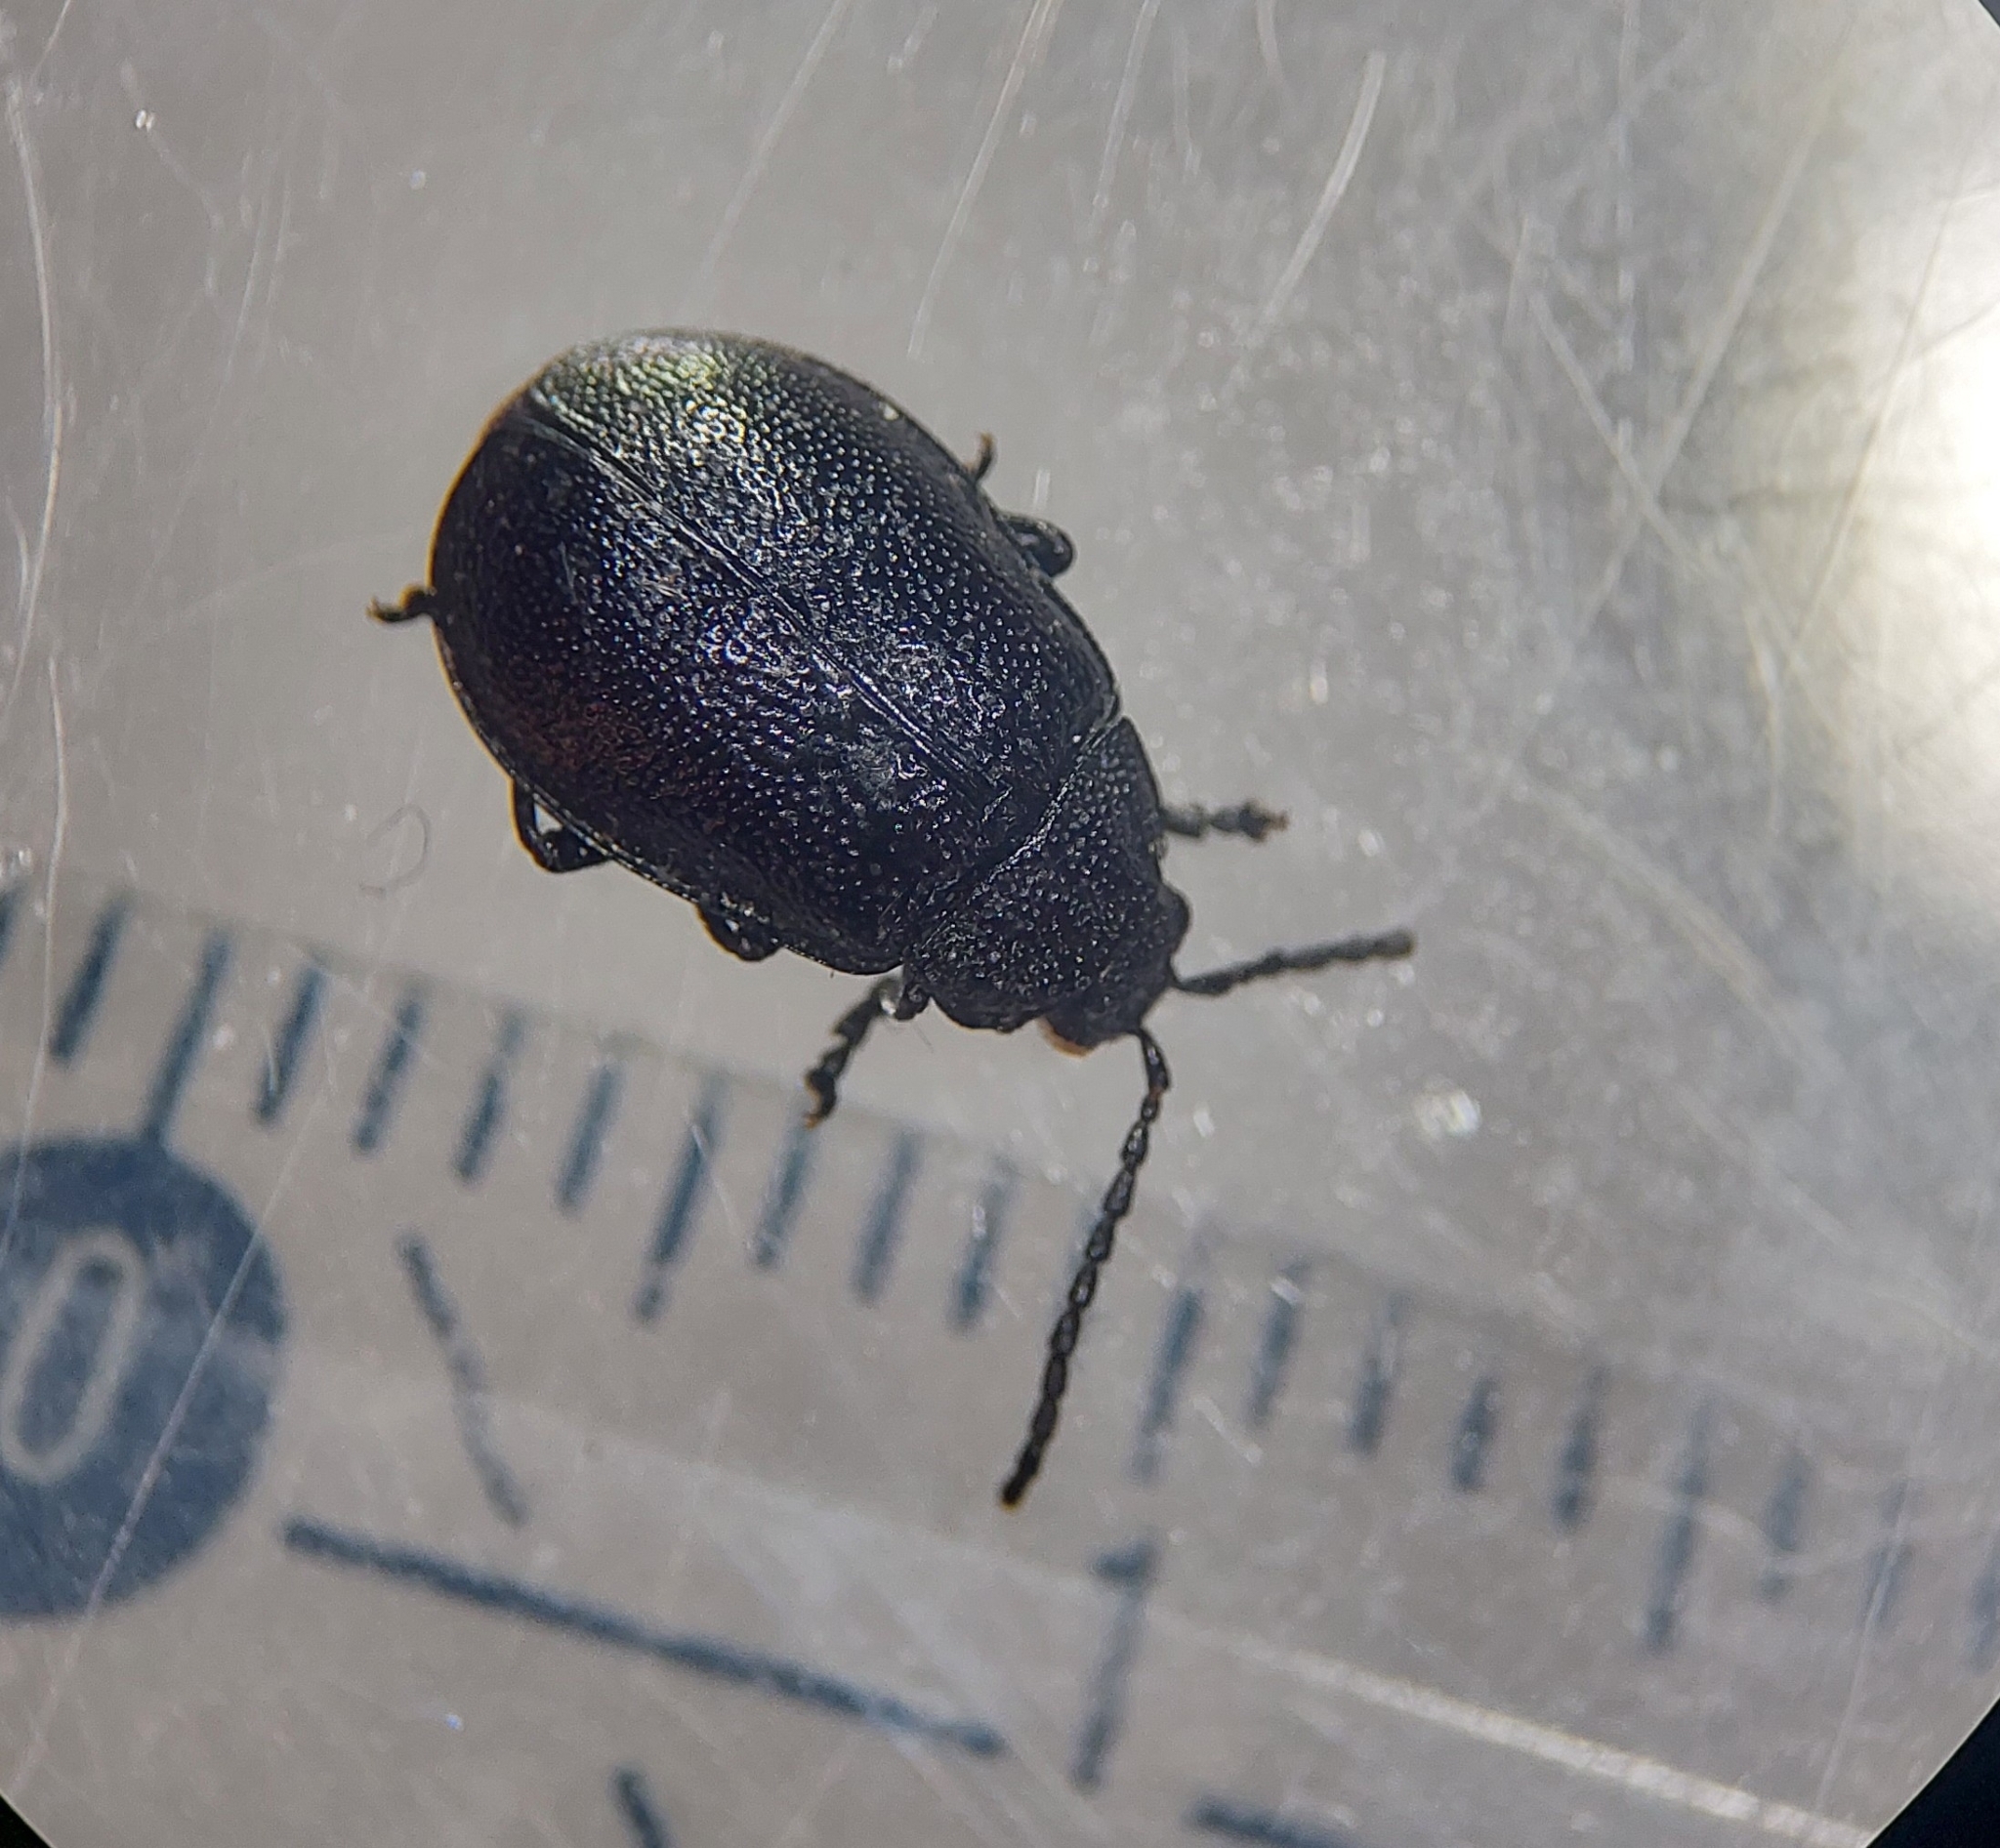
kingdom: Animalia
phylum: Arthropoda
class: Insecta
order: Coleoptera
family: Chrysomelidae
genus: Galeruca
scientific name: Galeruca tanaceti
